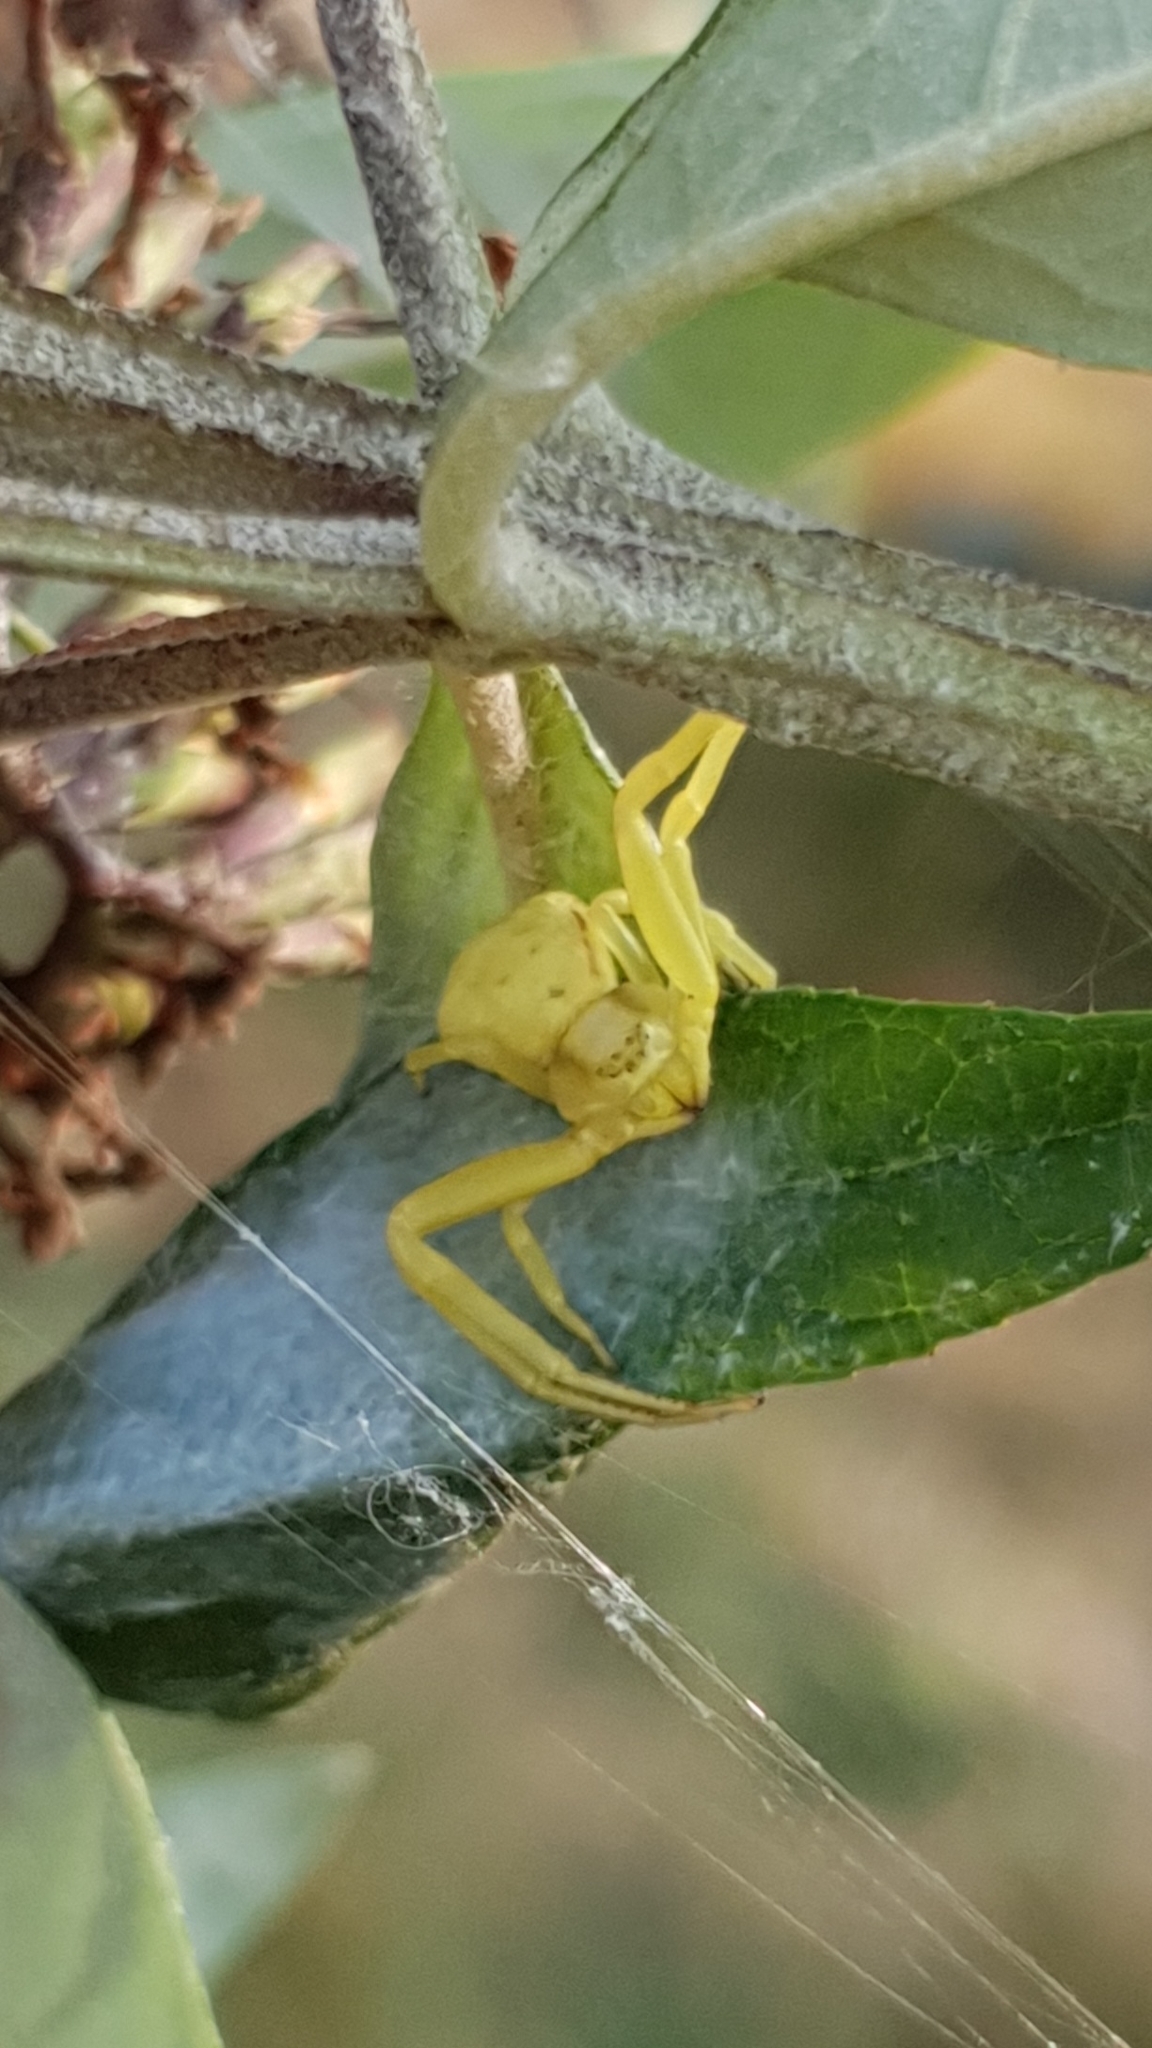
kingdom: Animalia
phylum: Arthropoda
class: Arachnida
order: Araneae
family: Thomisidae
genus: Misumena
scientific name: Misumena vatia
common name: Goldenrod crab spider
